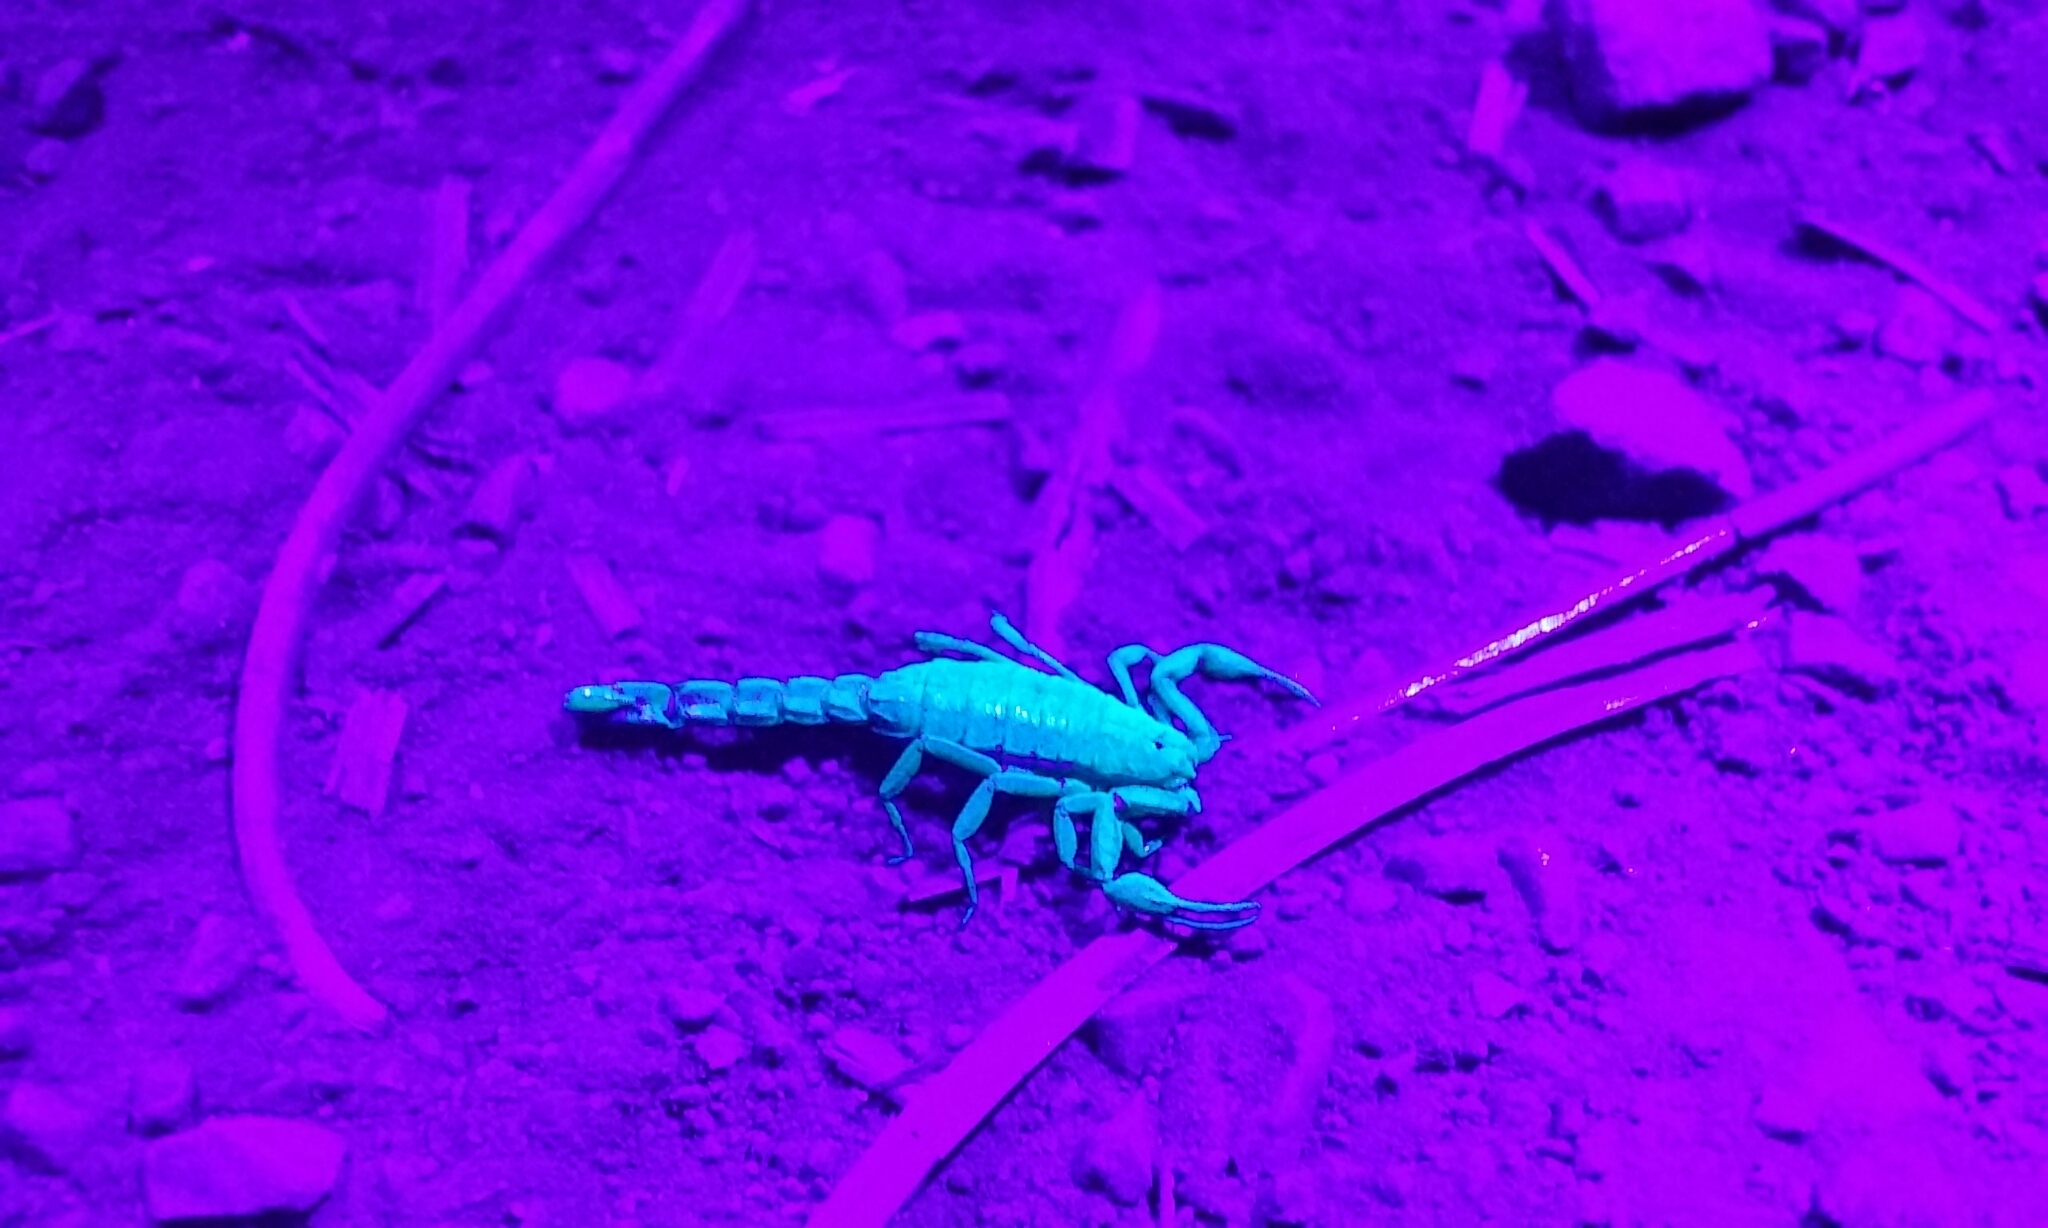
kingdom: Animalia
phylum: Arthropoda
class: Arachnida
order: Scorpiones
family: Vaejovidae
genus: Serradigitus
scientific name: Serradigitus gertschi
